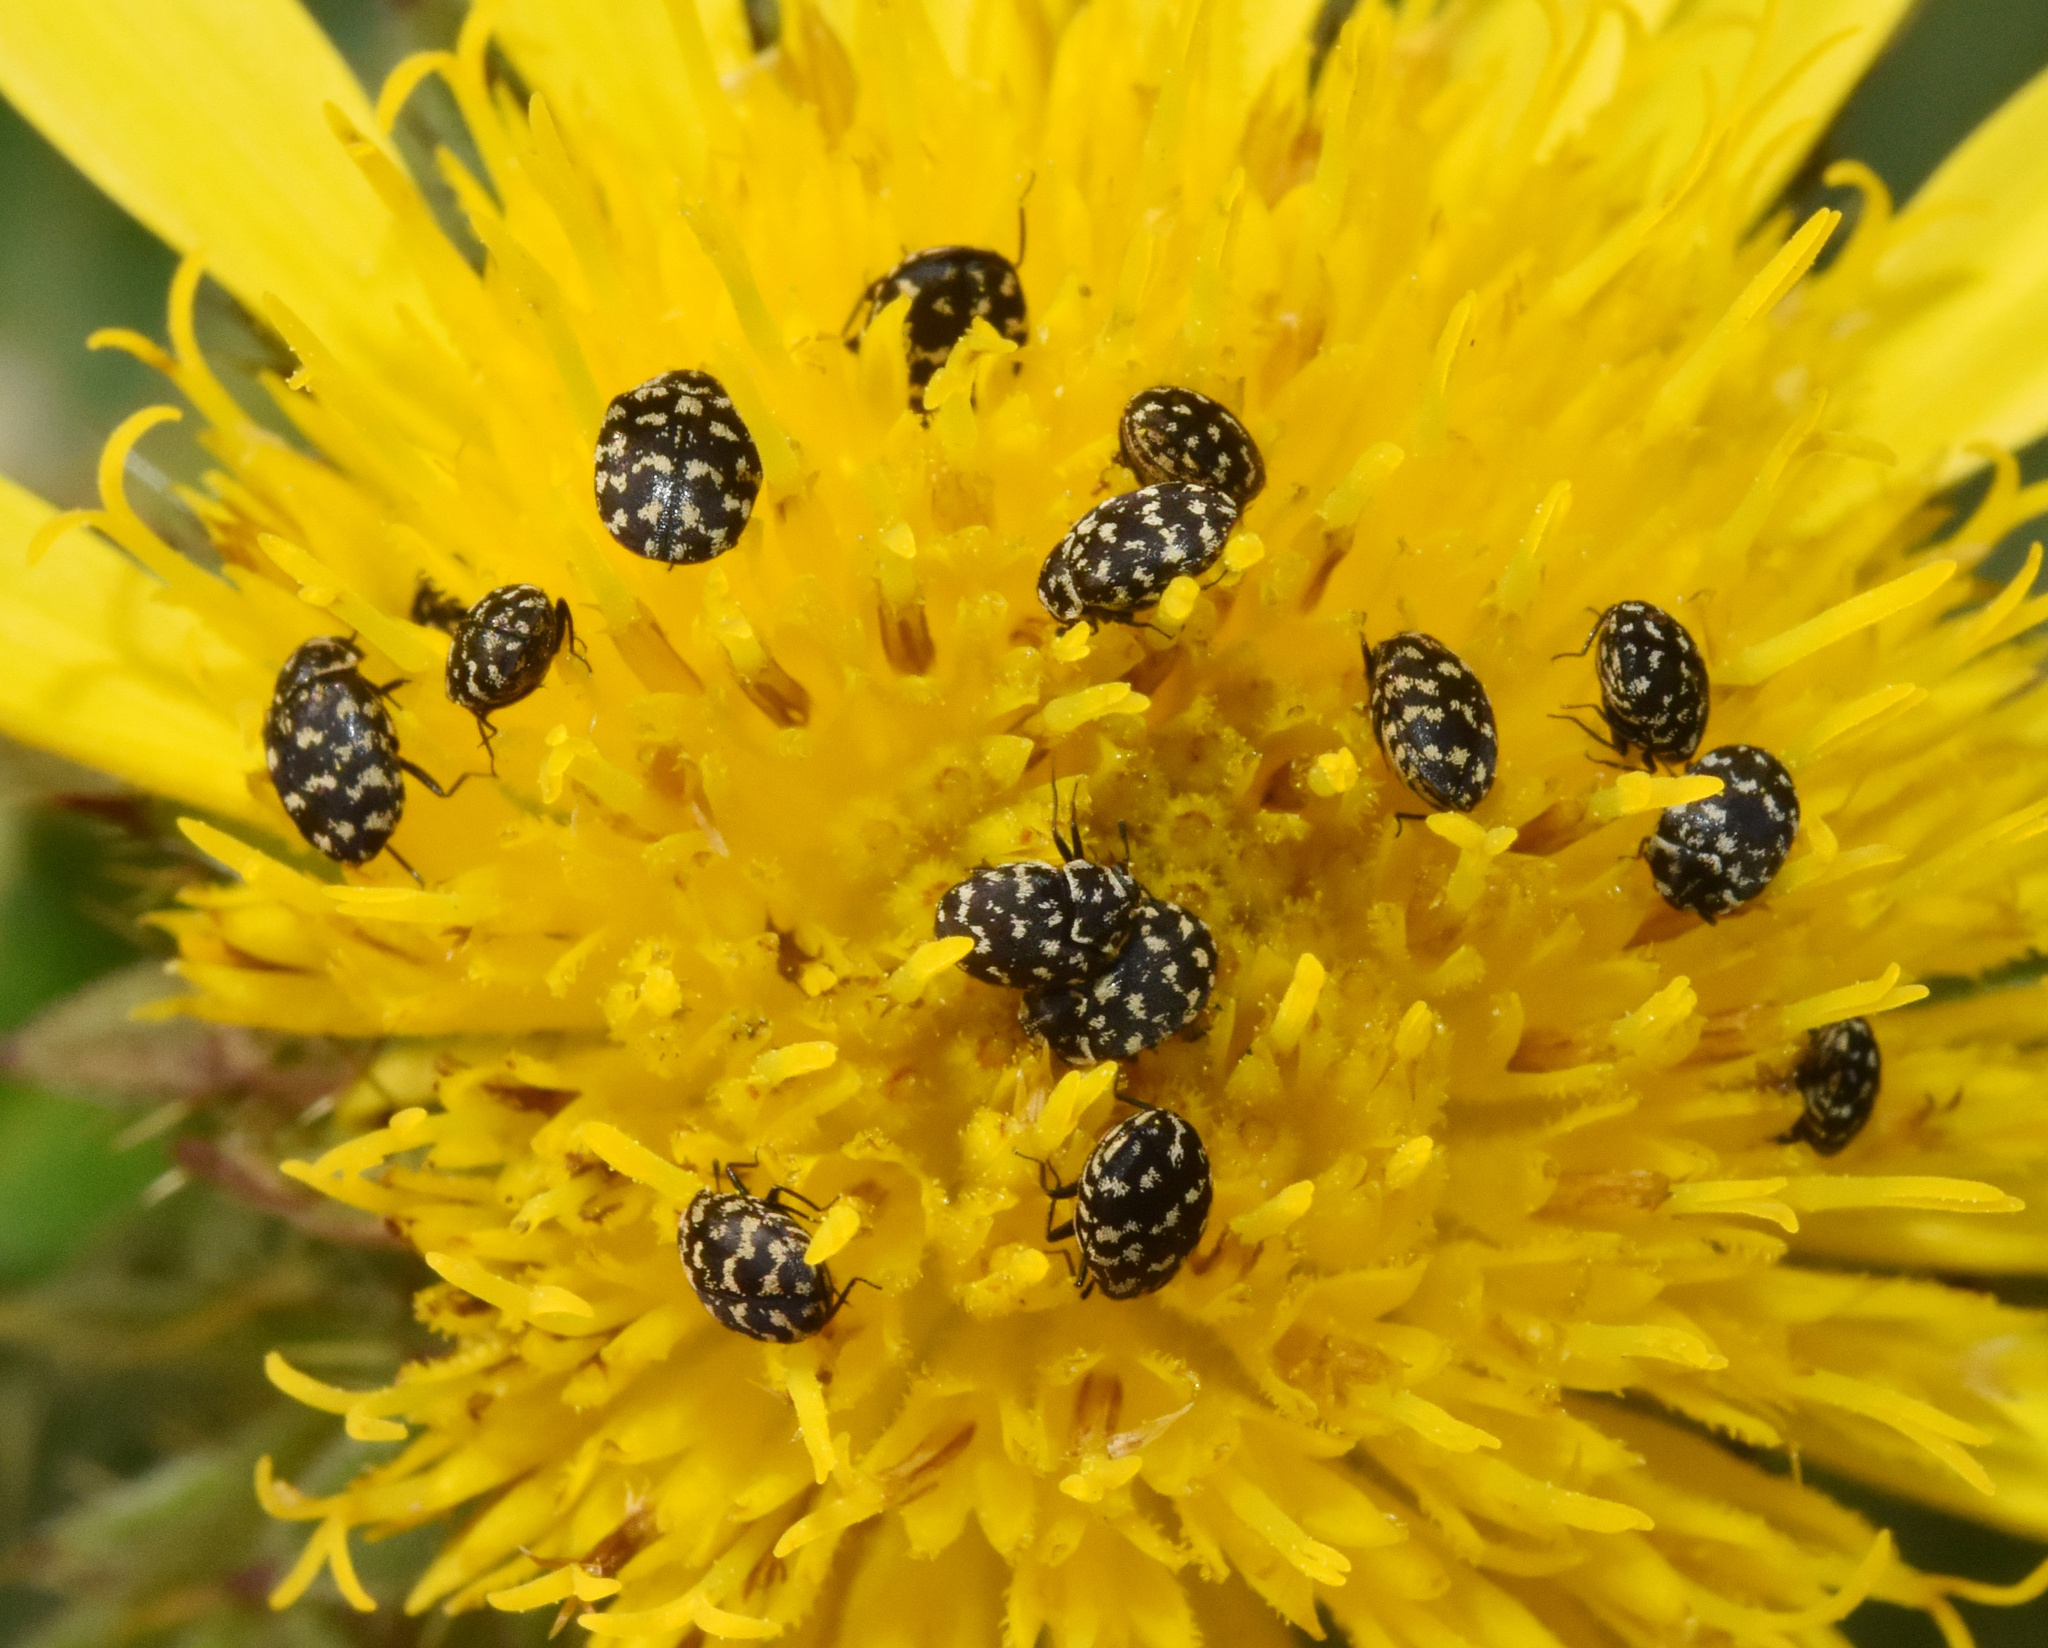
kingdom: Animalia
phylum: Arthropoda
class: Insecta
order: Coleoptera
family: Dermestidae
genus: Anthrenus
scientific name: Anthrenus
